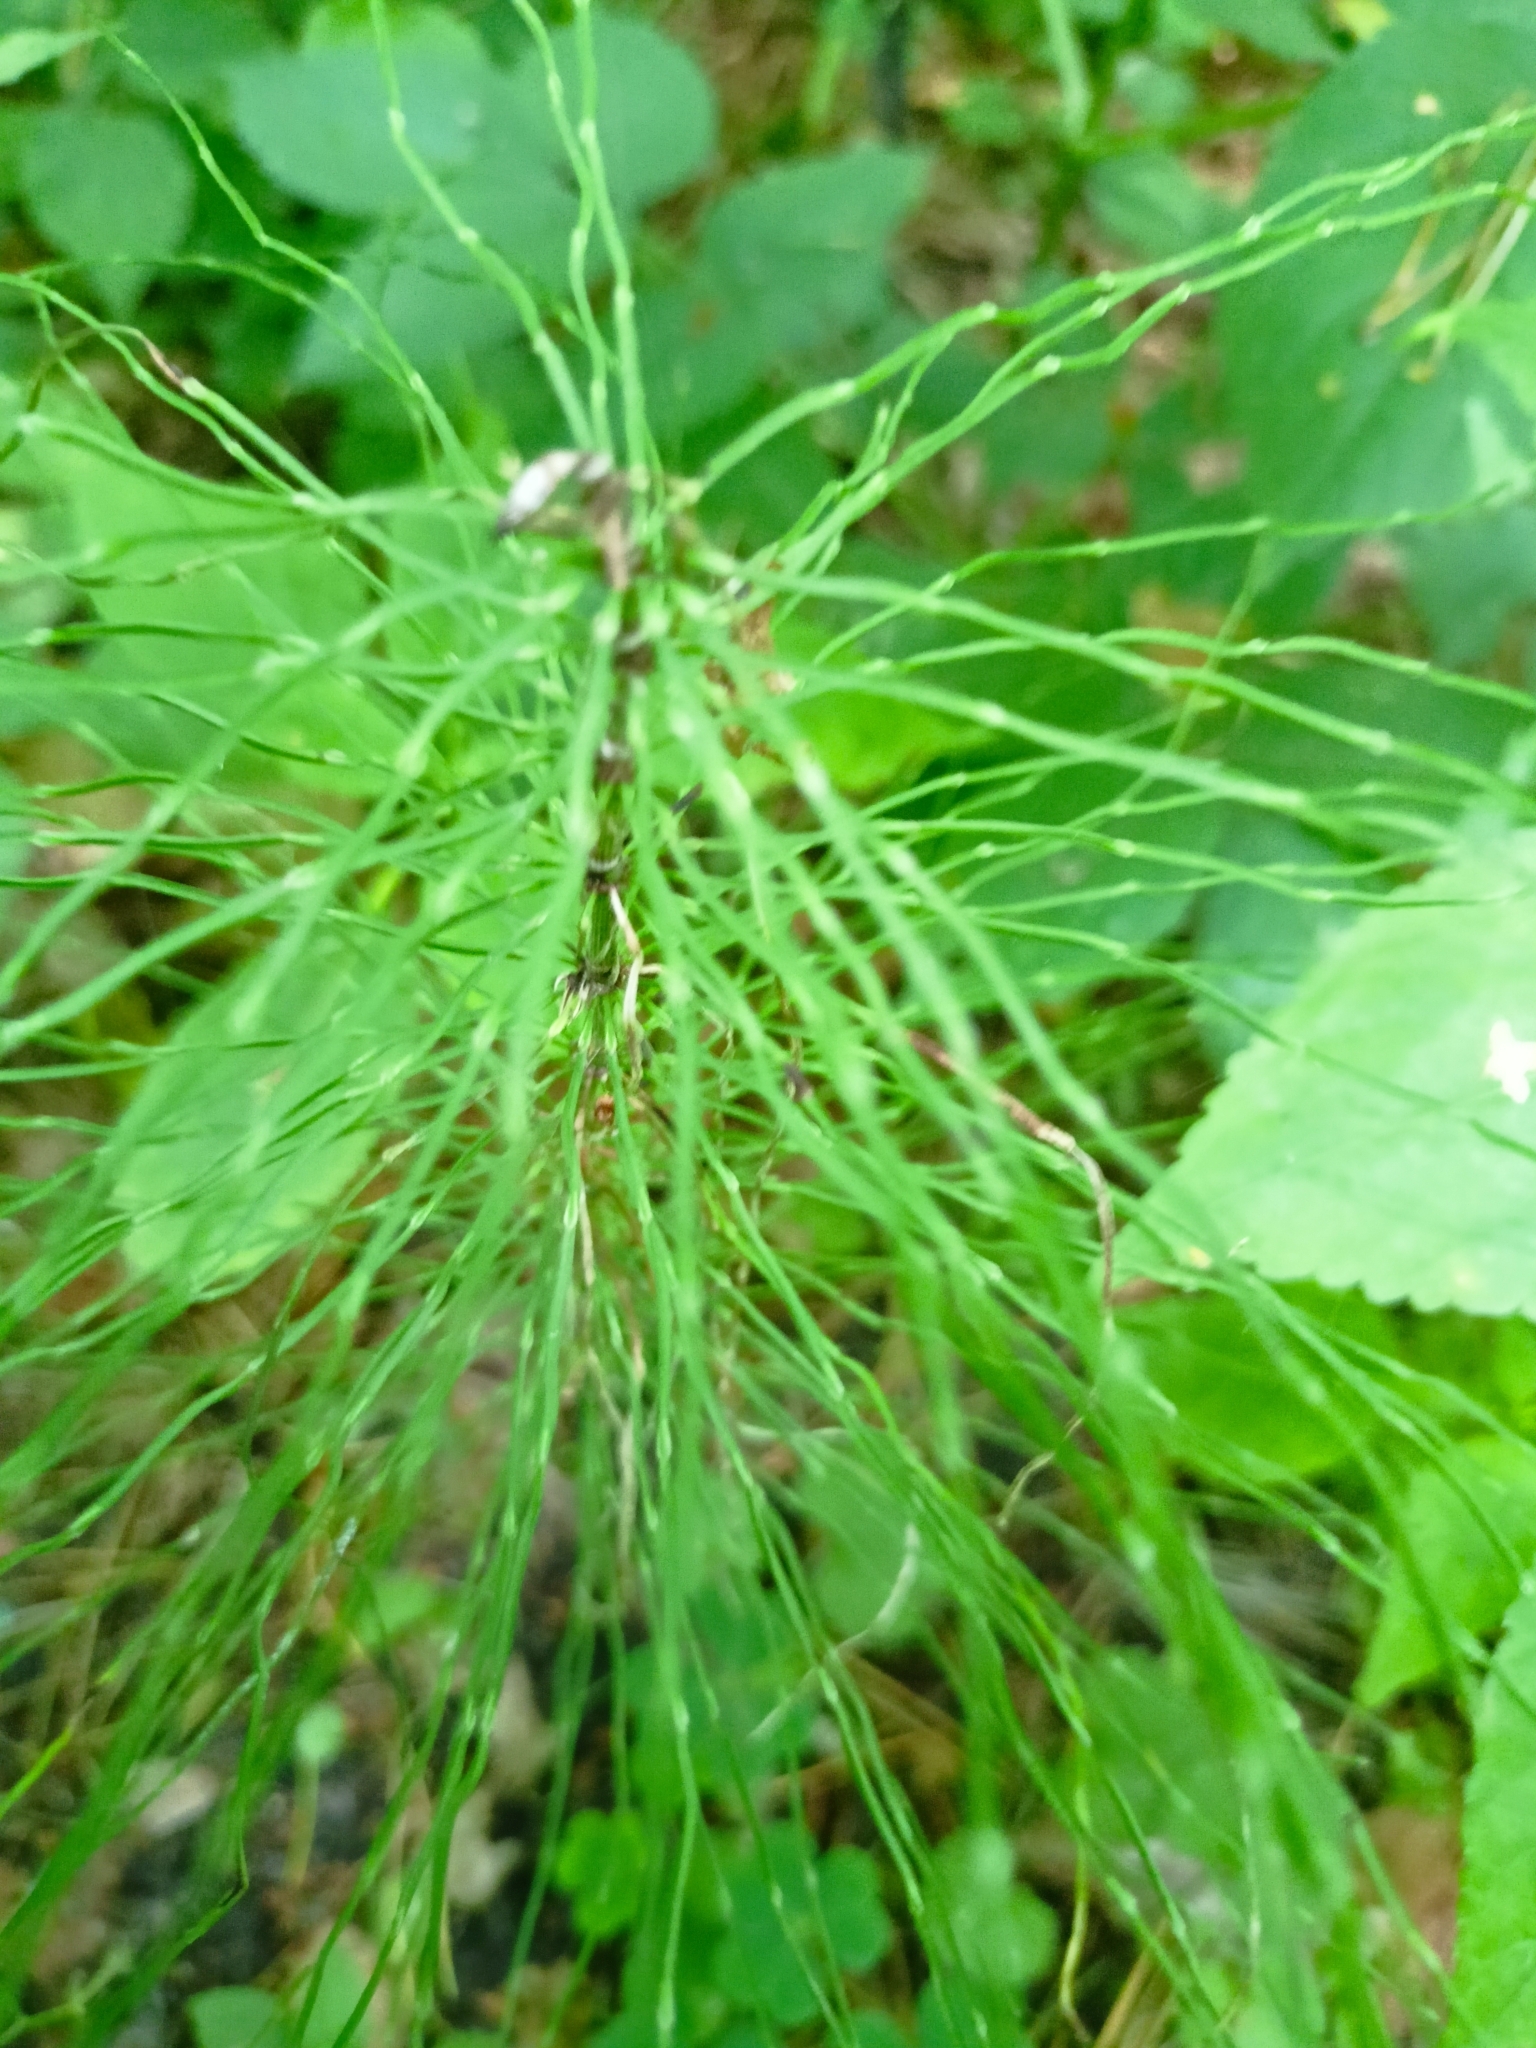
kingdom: Plantae
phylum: Tracheophyta
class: Polypodiopsida
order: Equisetales
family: Equisetaceae
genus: Equisetum
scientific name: Equisetum pratense
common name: Meadow horsetail
